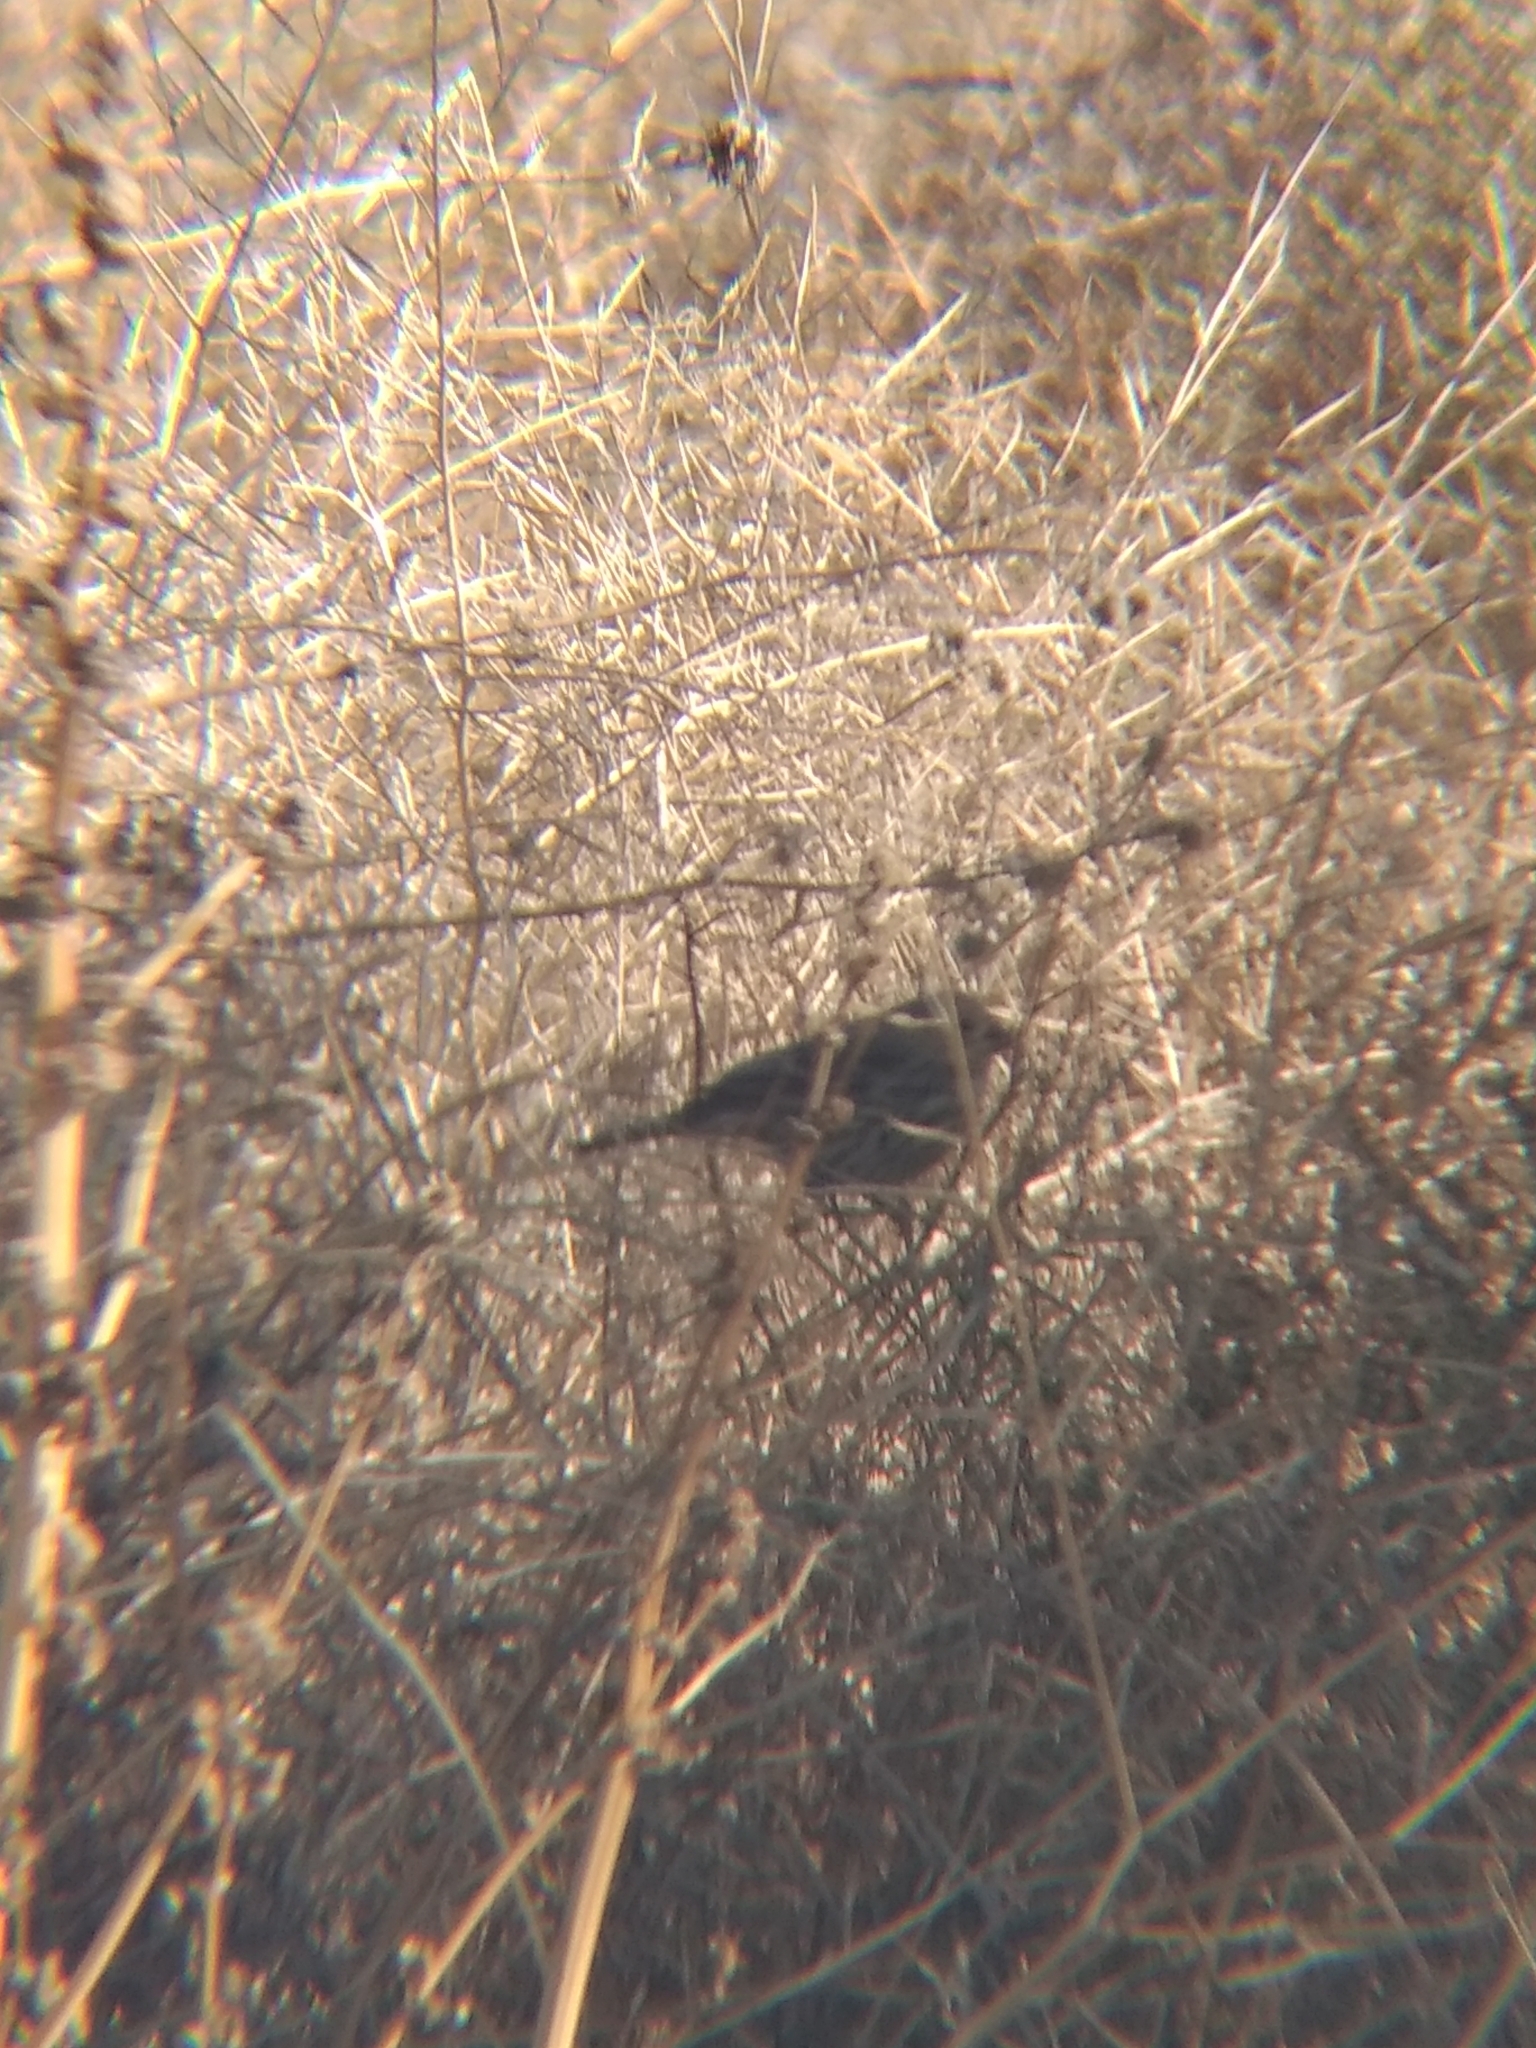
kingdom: Animalia
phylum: Chordata
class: Aves
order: Passeriformes
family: Fringillidae
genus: Haemorhous
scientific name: Haemorhous mexicanus
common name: House finch
